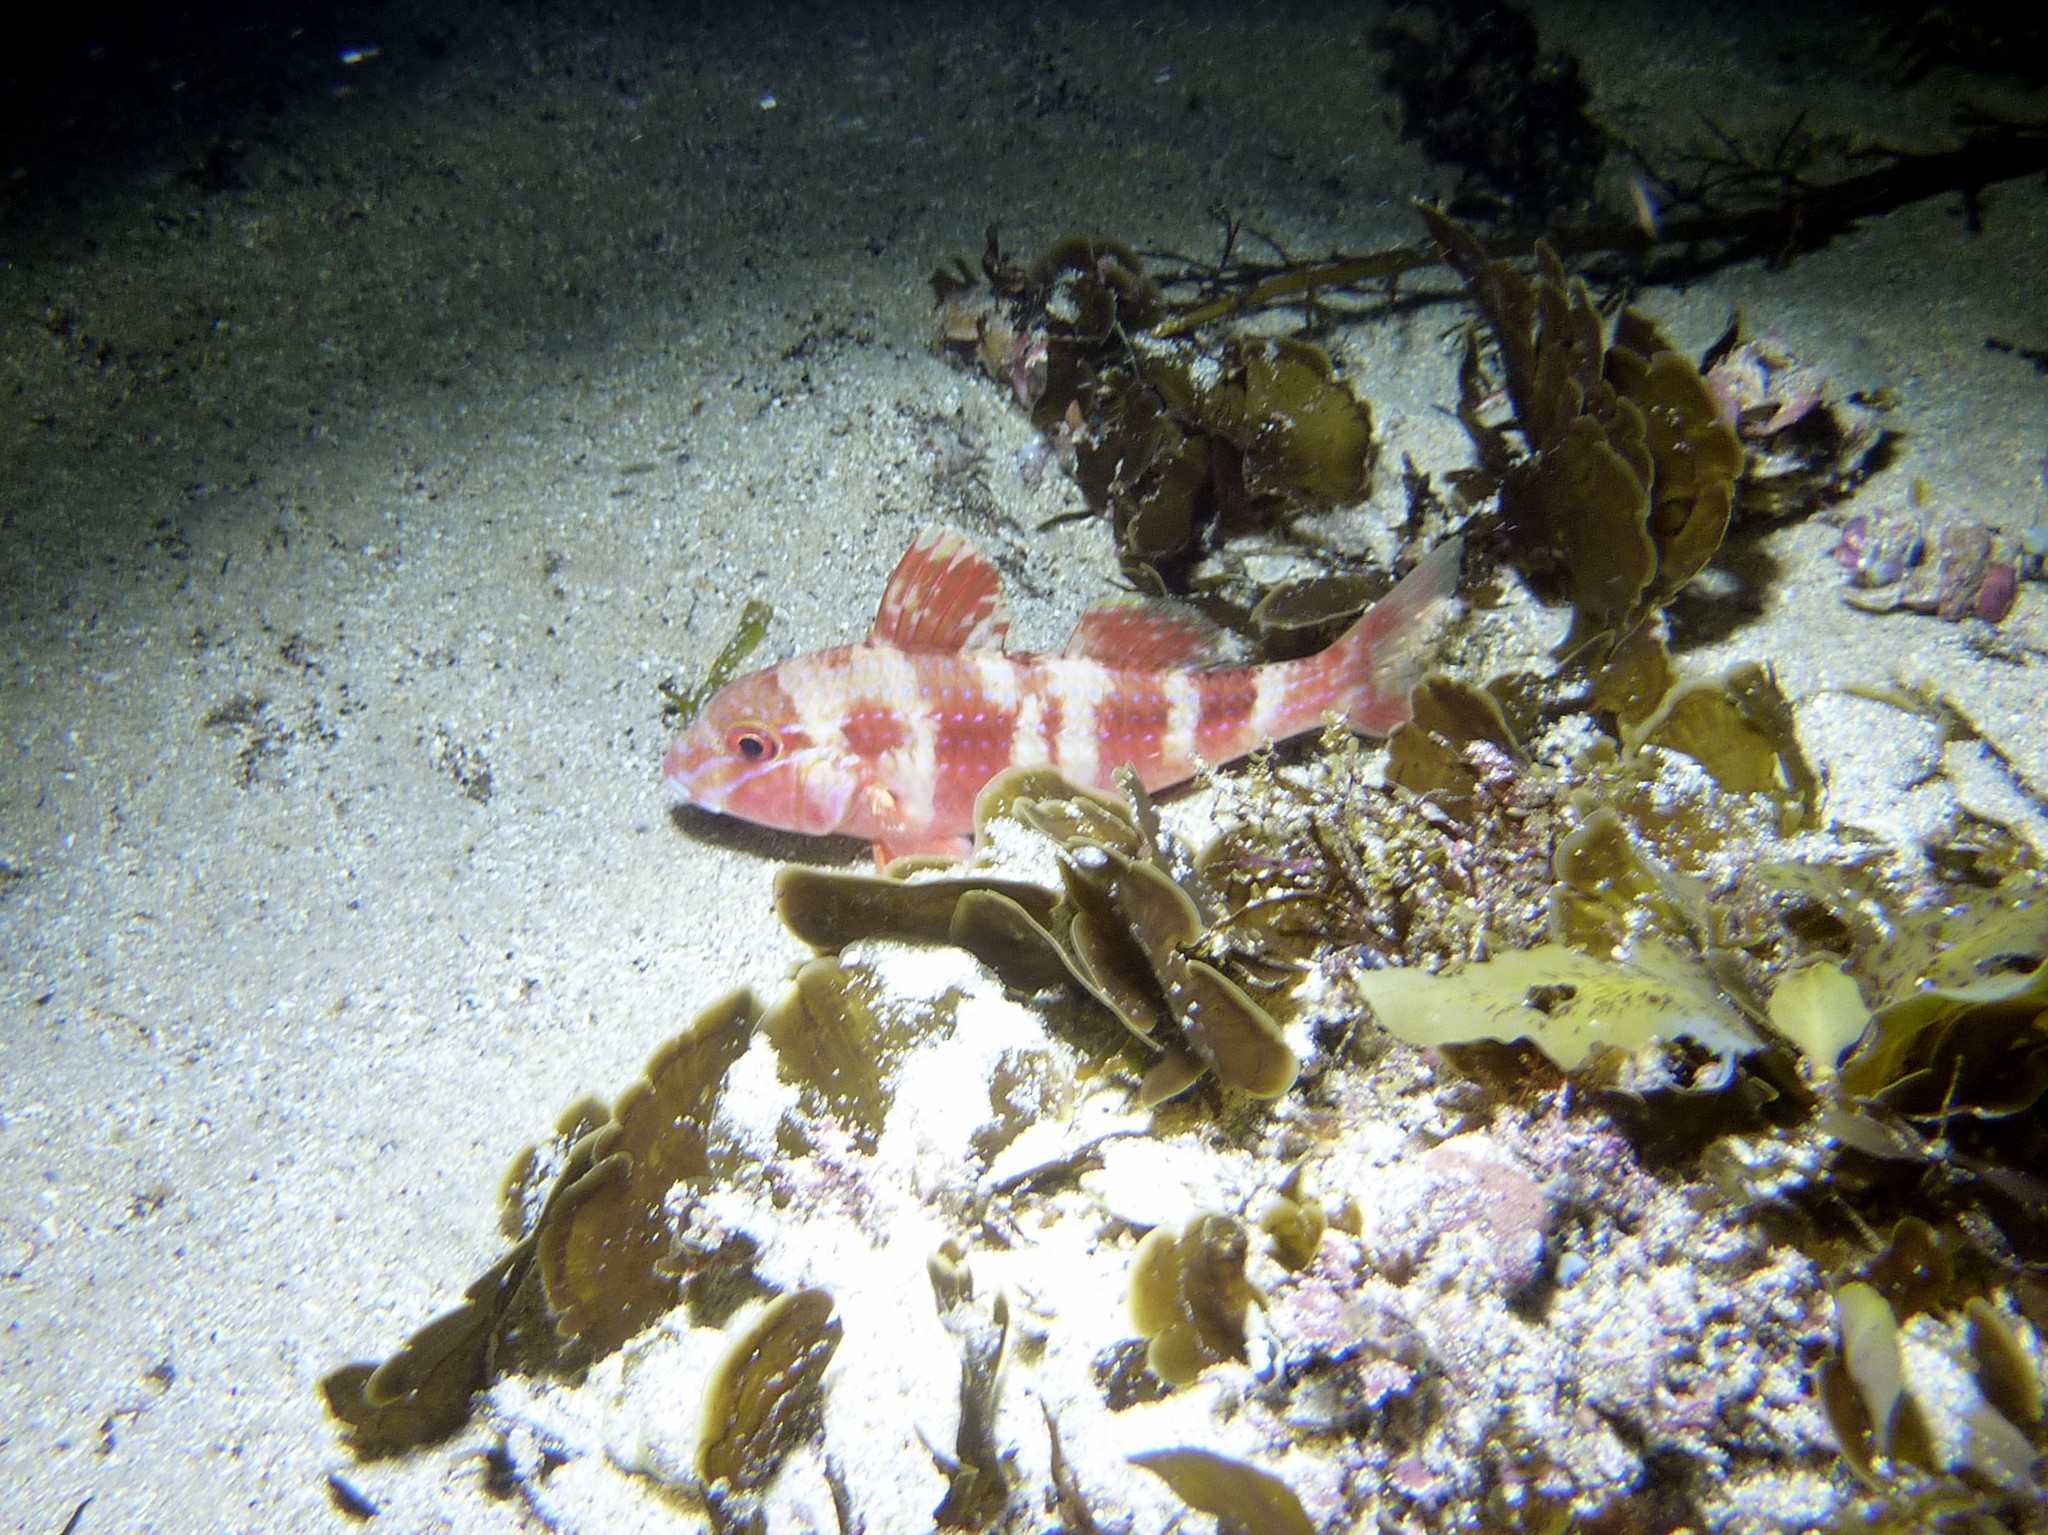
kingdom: Animalia
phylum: Chordata
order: Perciformes
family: Mullidae
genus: Upeneichthys
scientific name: Upeneichthys lineatus
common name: Red mullet
